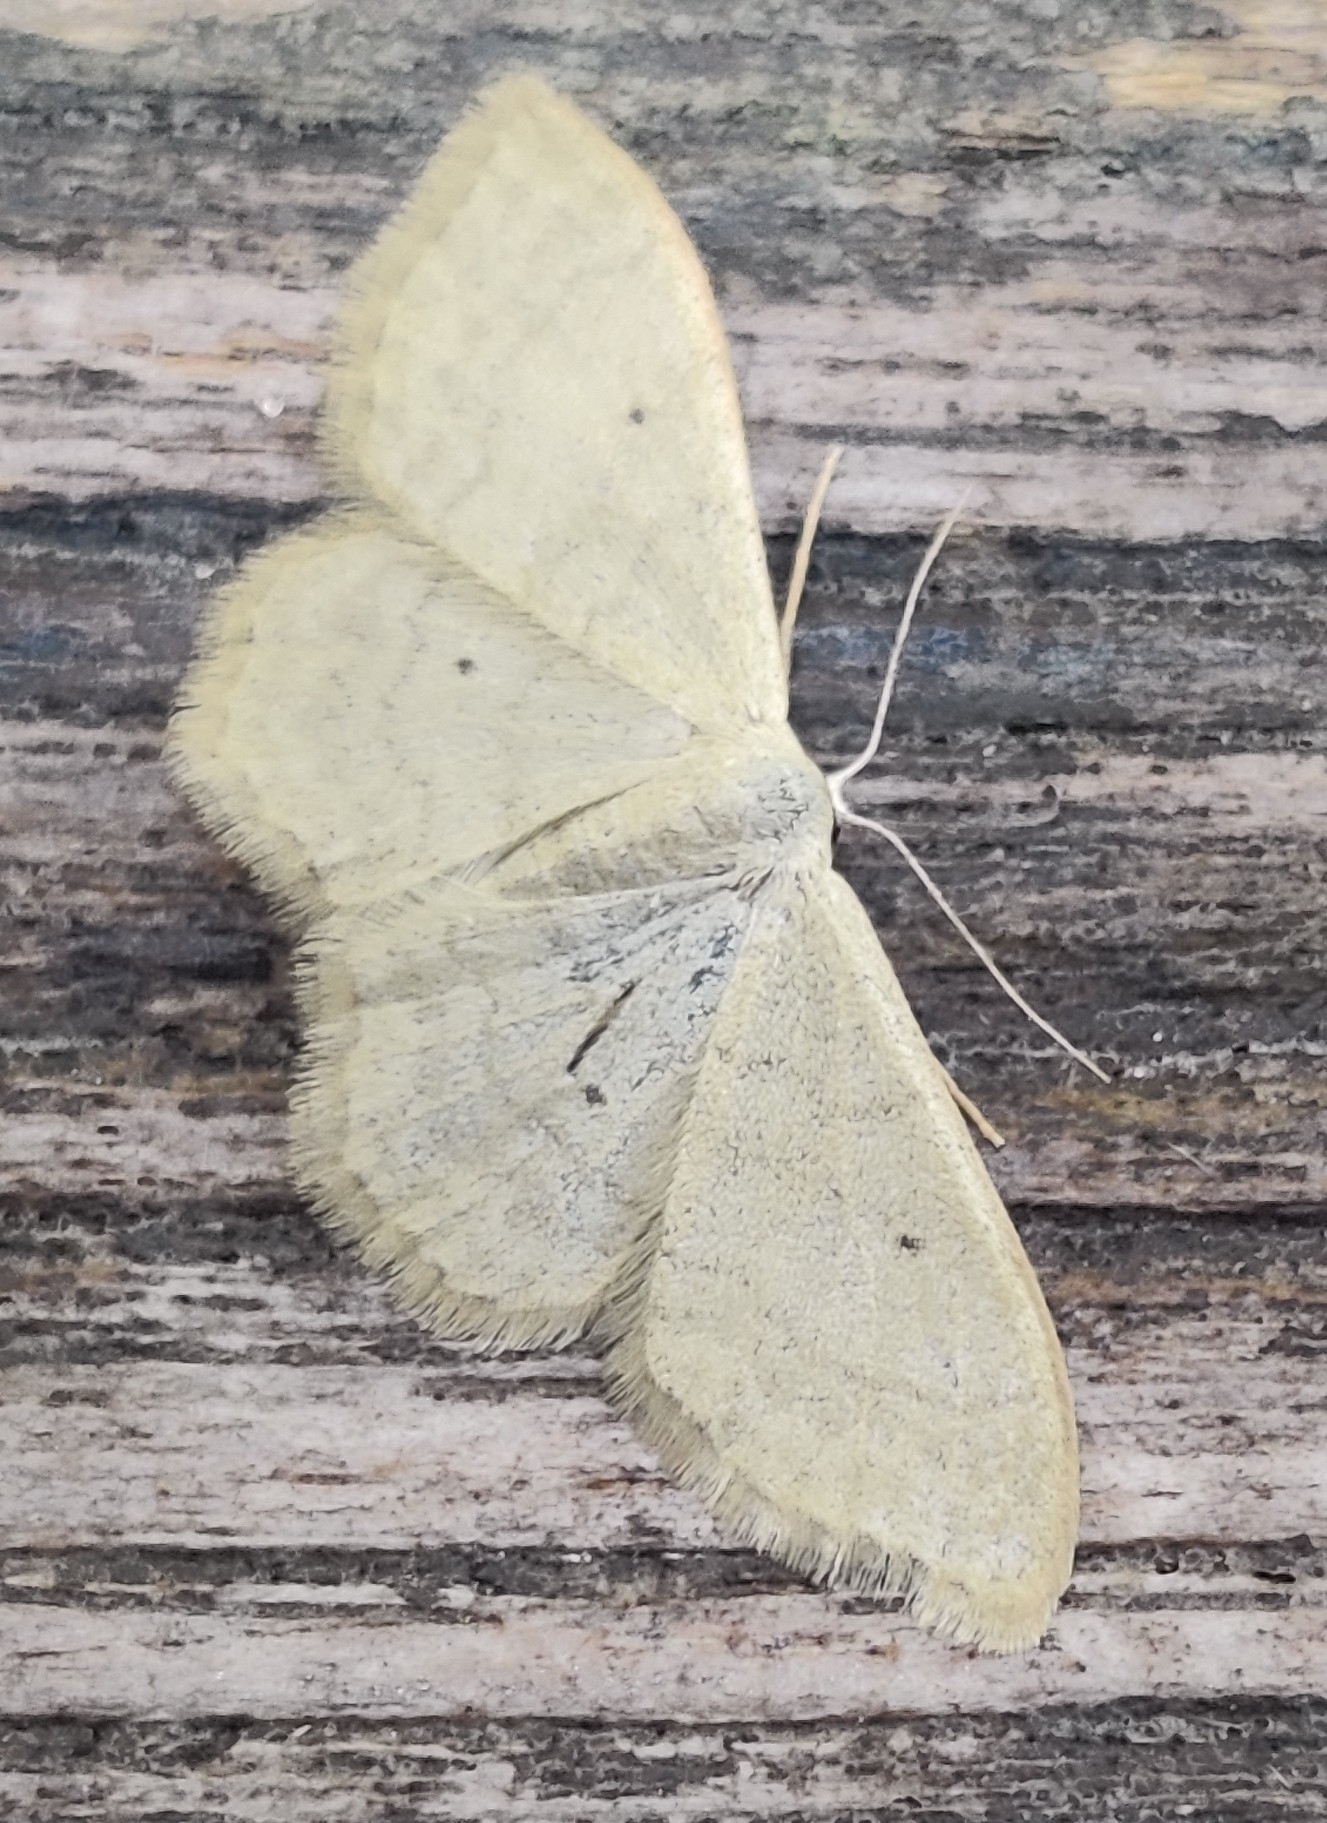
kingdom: Animalia
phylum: Arthropoda
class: Insecta
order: Lepidoptera
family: Geometridae
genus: Idaea
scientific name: Idaea straminata
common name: Plain wave
